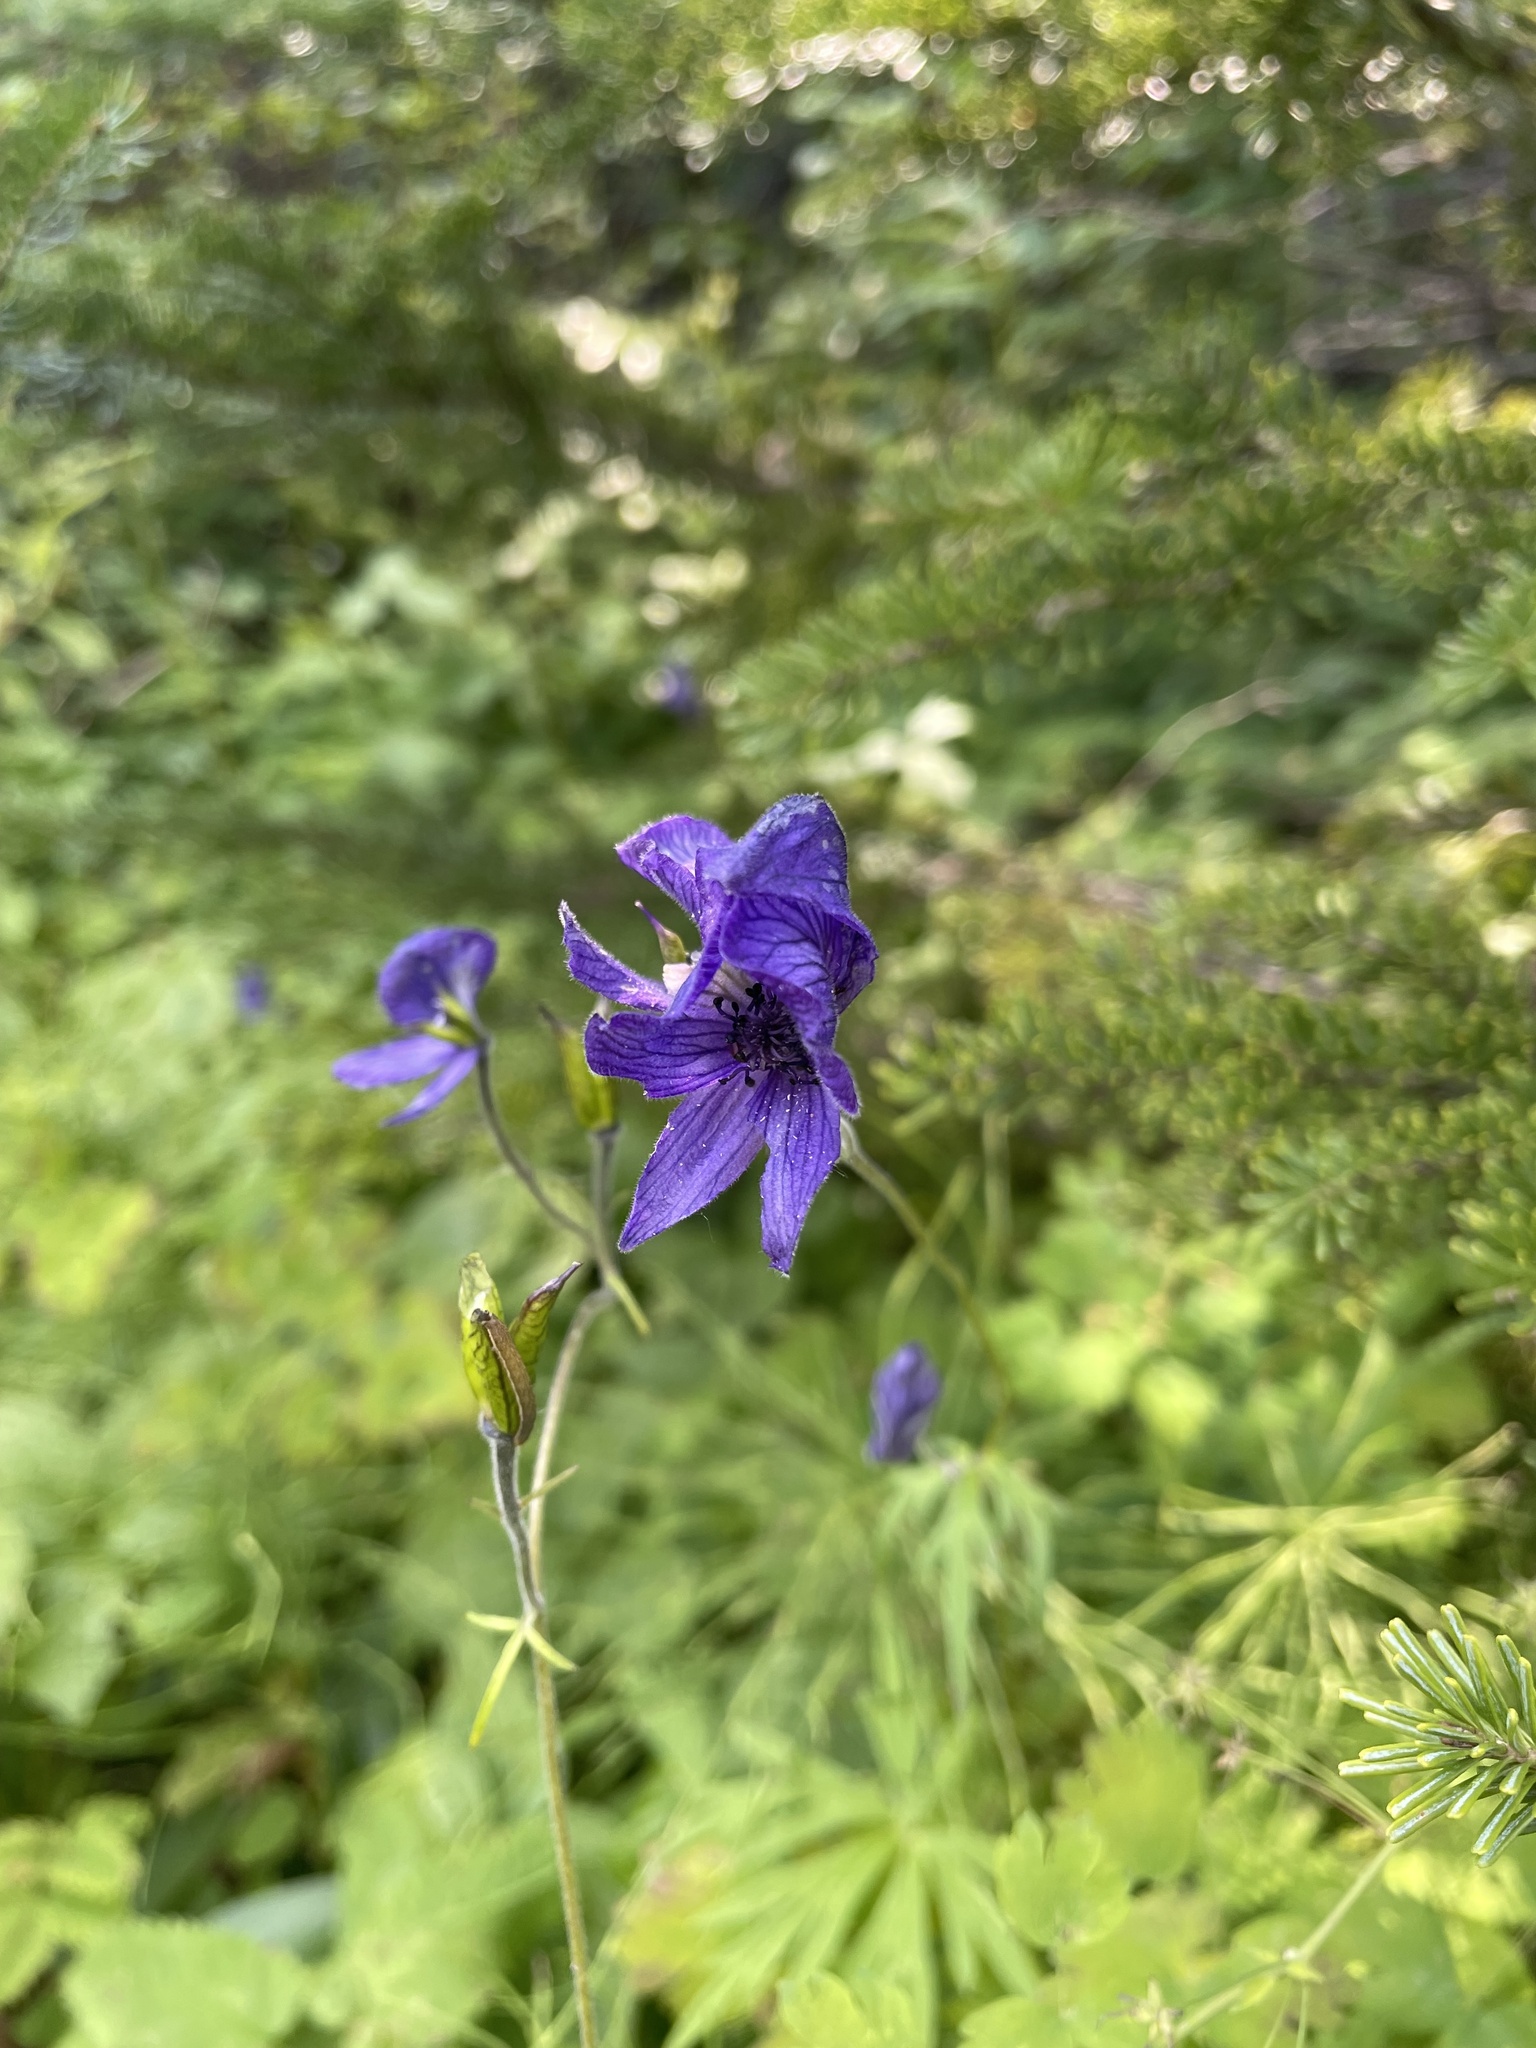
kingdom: Plantae
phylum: Tracheophyta
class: Magnoliopsida
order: Ranunculales
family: Ranunculaceae
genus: Aconitum
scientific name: Aconitum delphiniifolium
